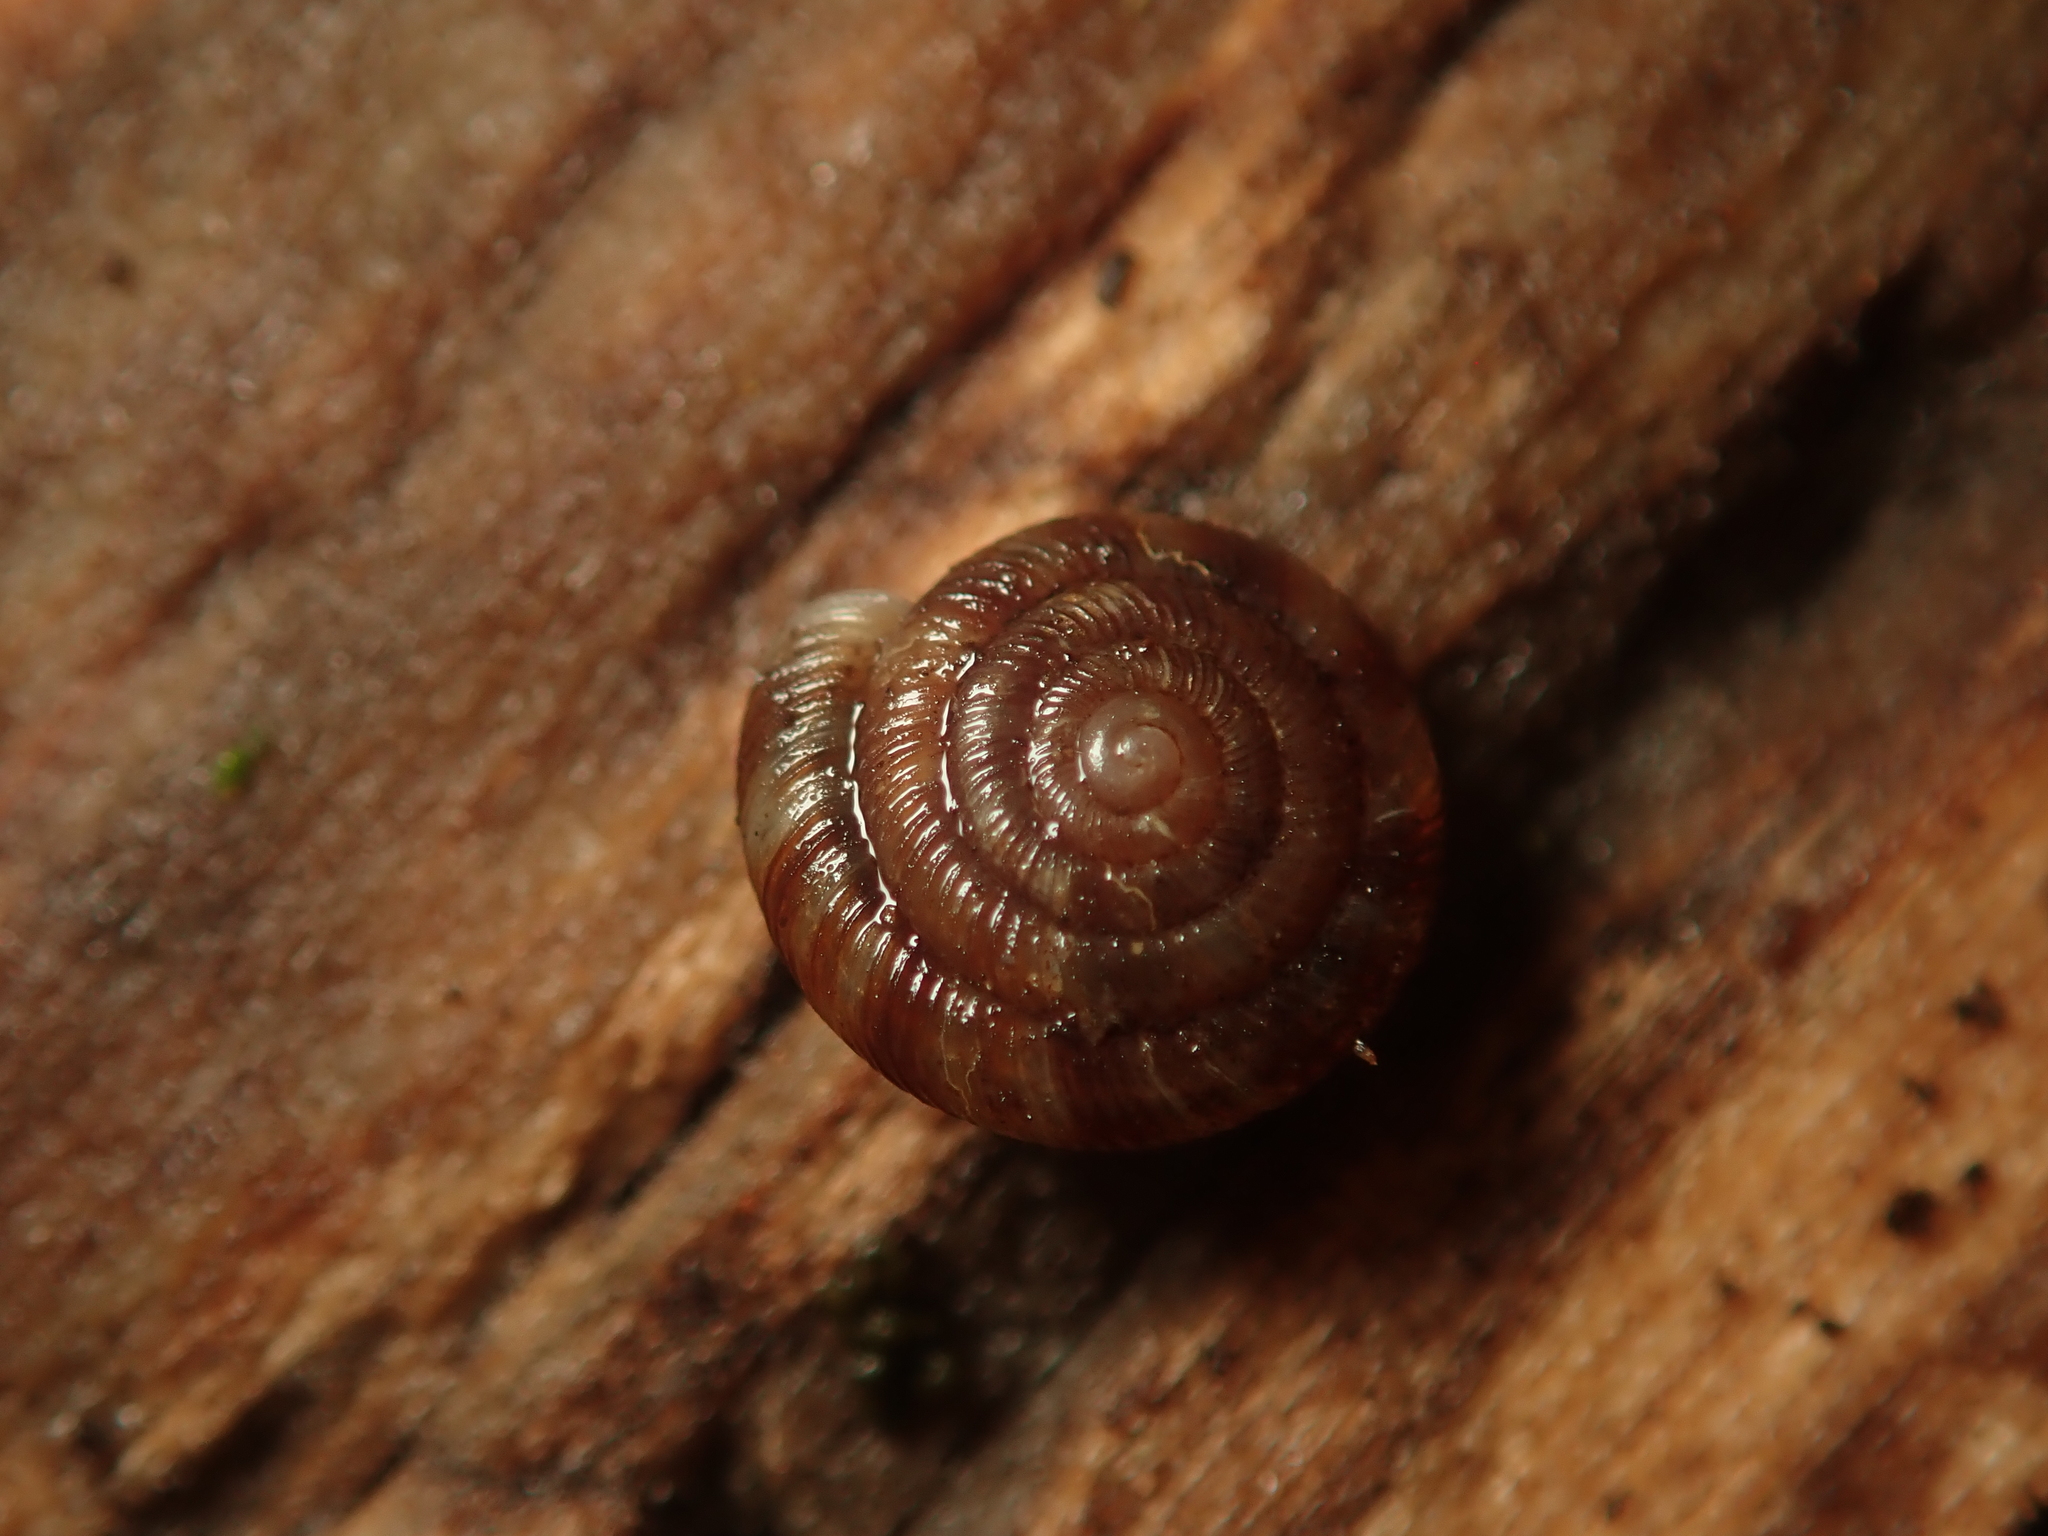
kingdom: Animalia
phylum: Mollusca
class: Gastropoda
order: Stylommatophora
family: Discidae
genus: Discus
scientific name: Discus rotundatus
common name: Rounded snail
